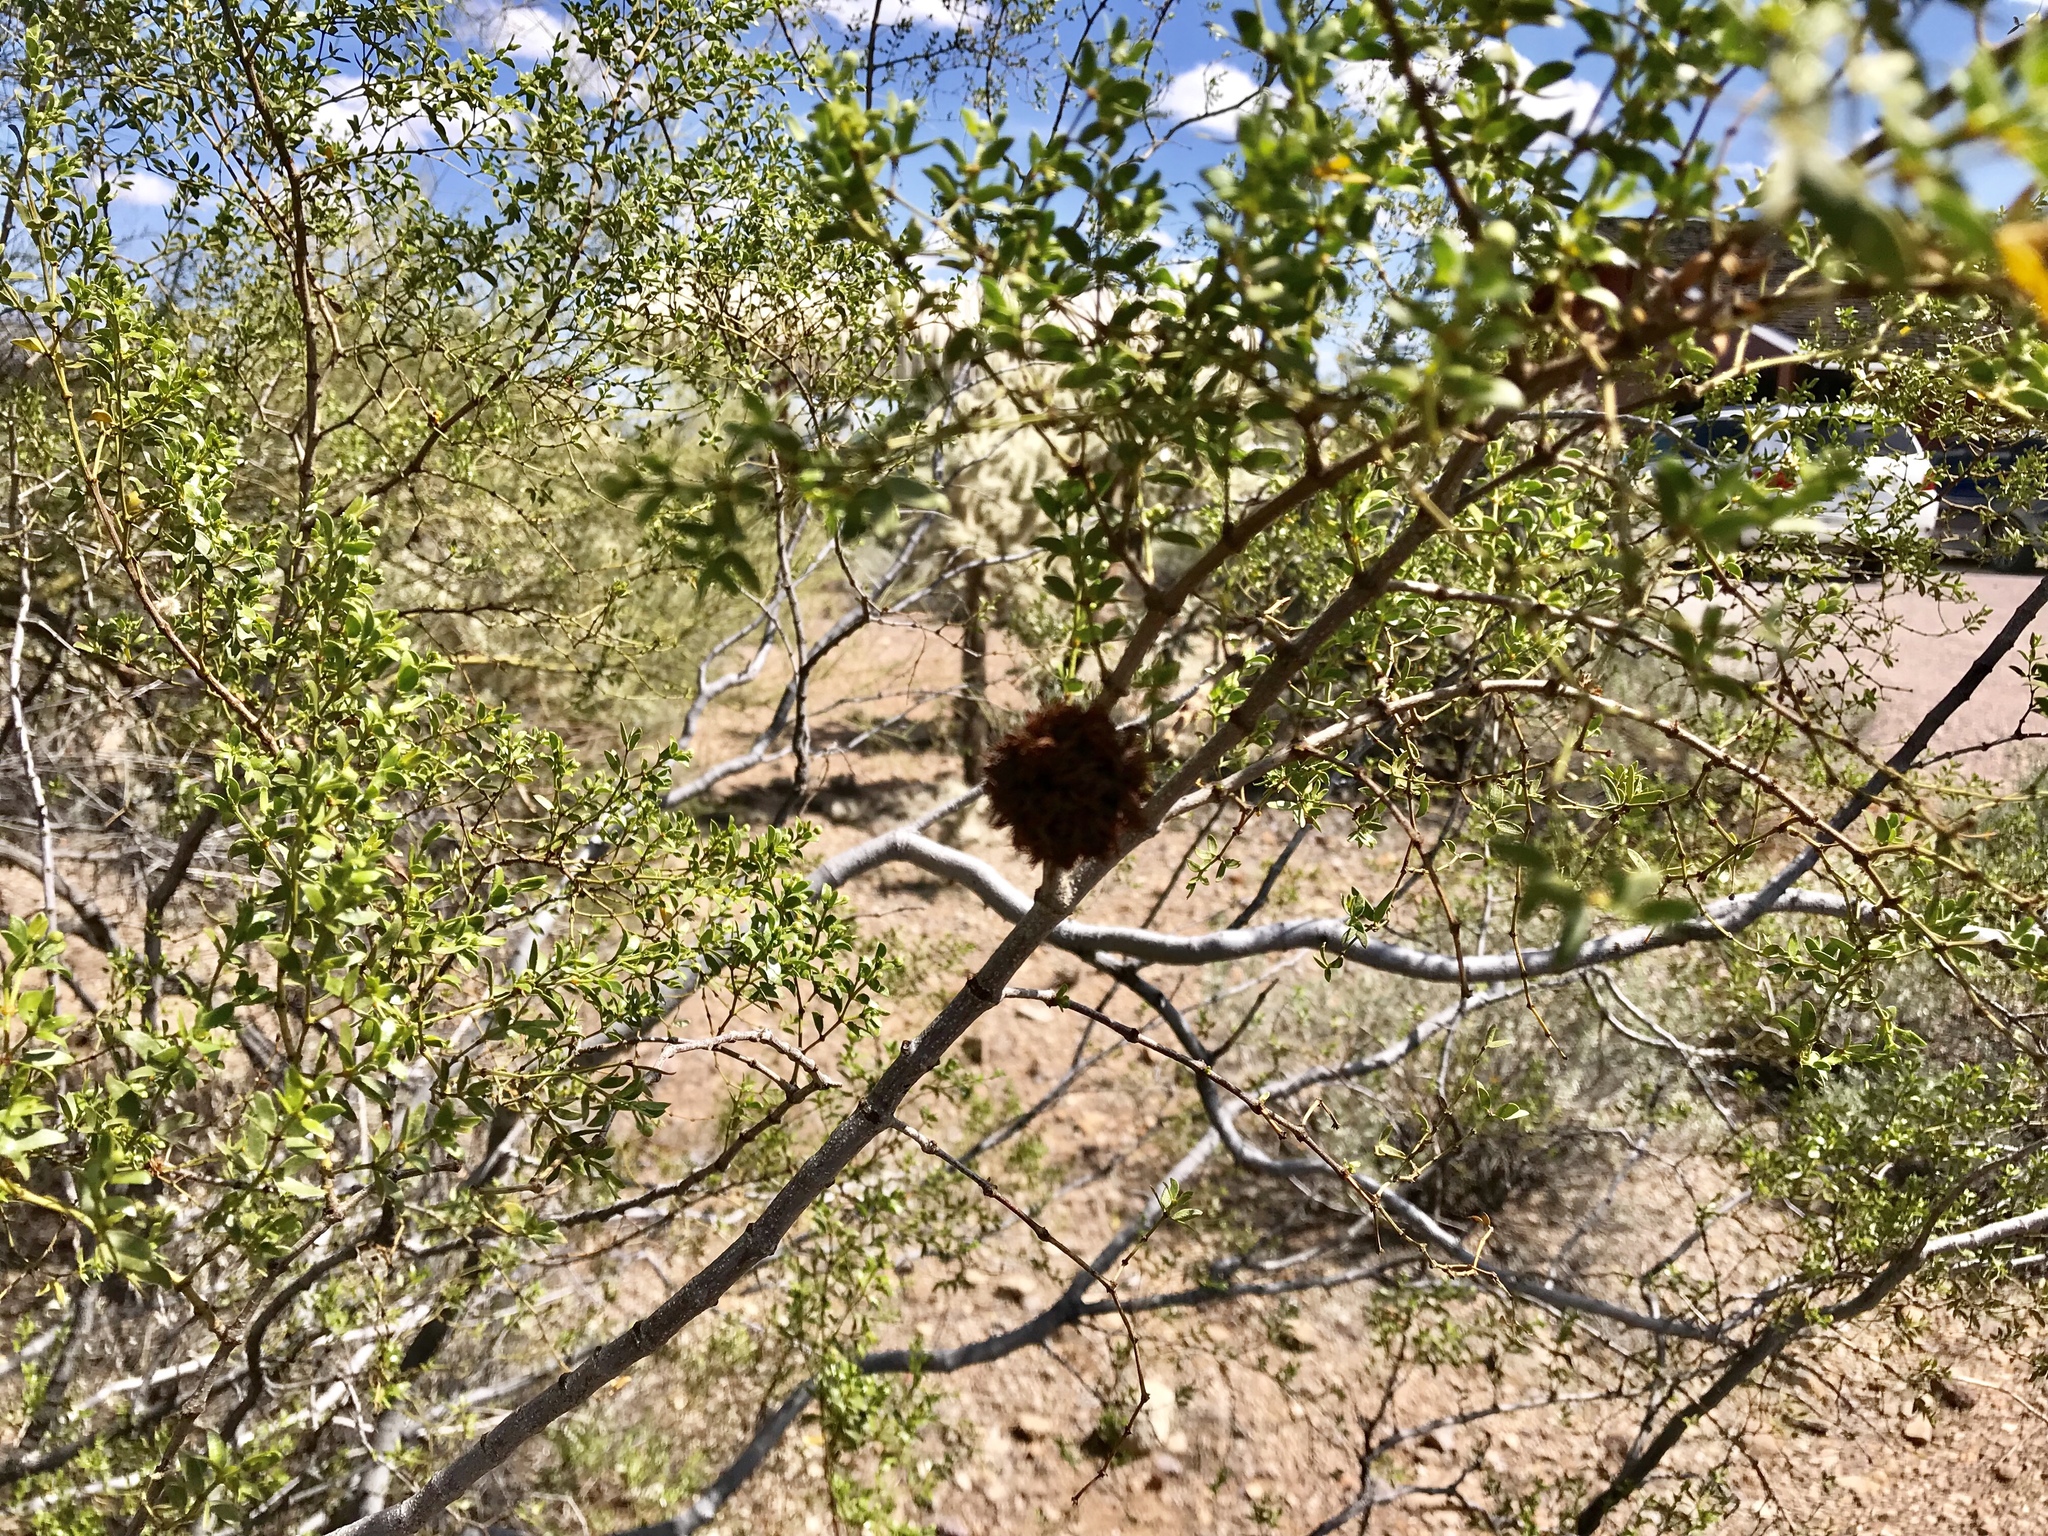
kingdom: Animalia
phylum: Arthropoda
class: Insecta
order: Diptera
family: Cecidomyiidae
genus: Asphondylia
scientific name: Asphondylia auripila
